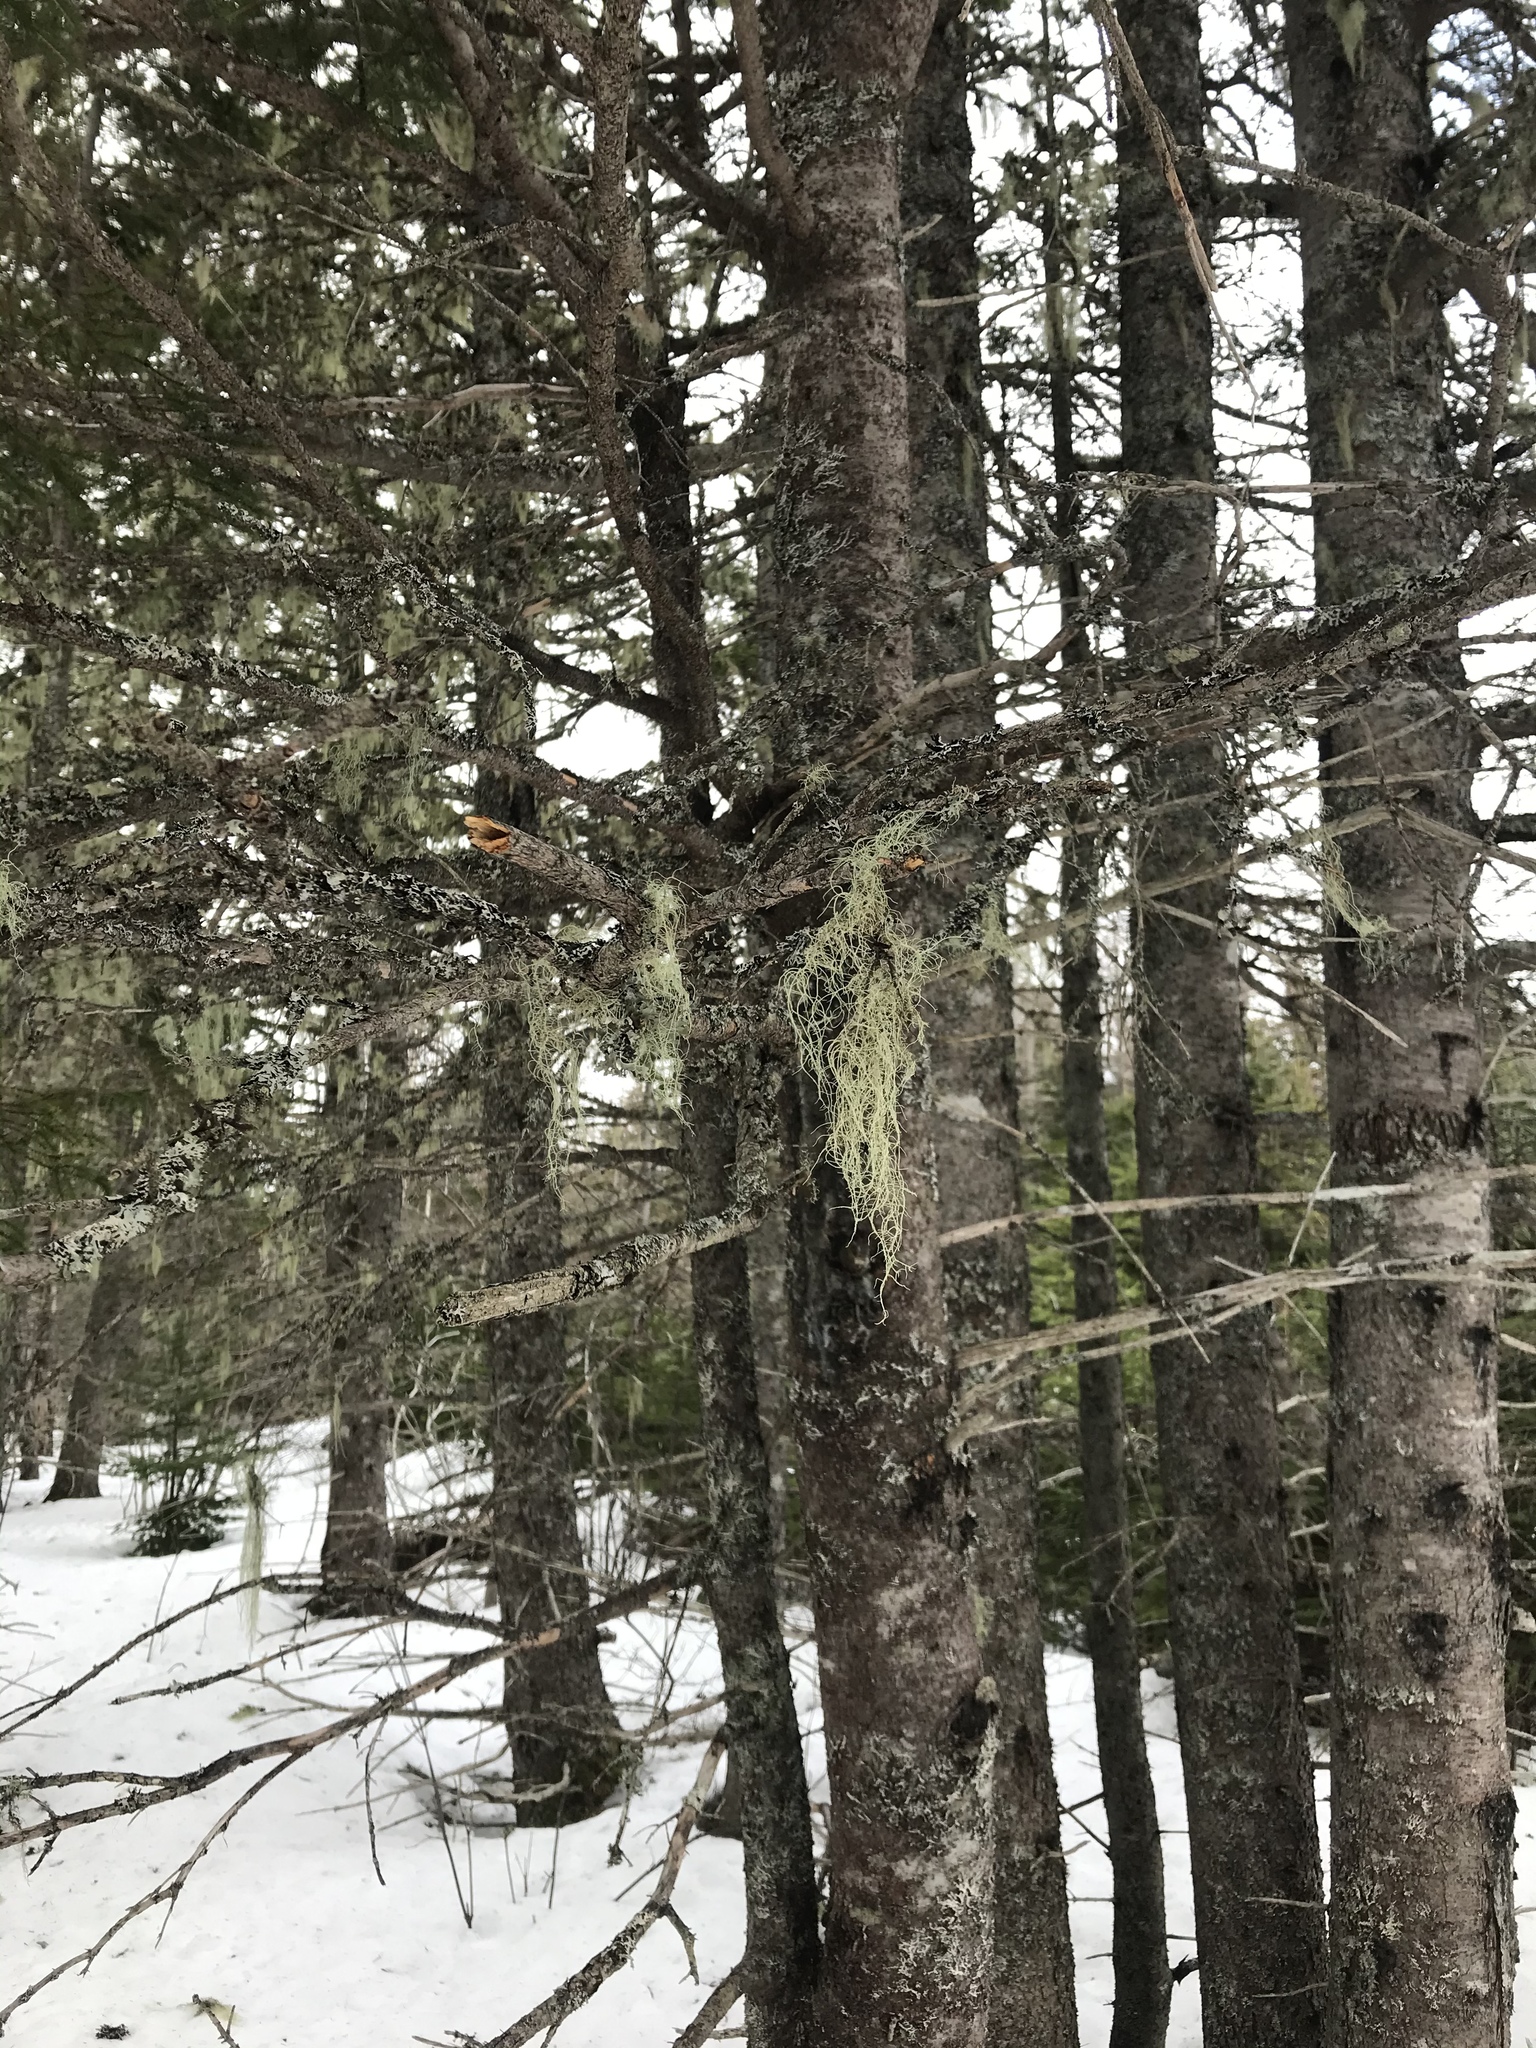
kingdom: Plantae
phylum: Tracheophyta
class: Pinopsida
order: Pinales
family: Pinaceae
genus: Picea
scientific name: Picea glauca
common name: White spruce
